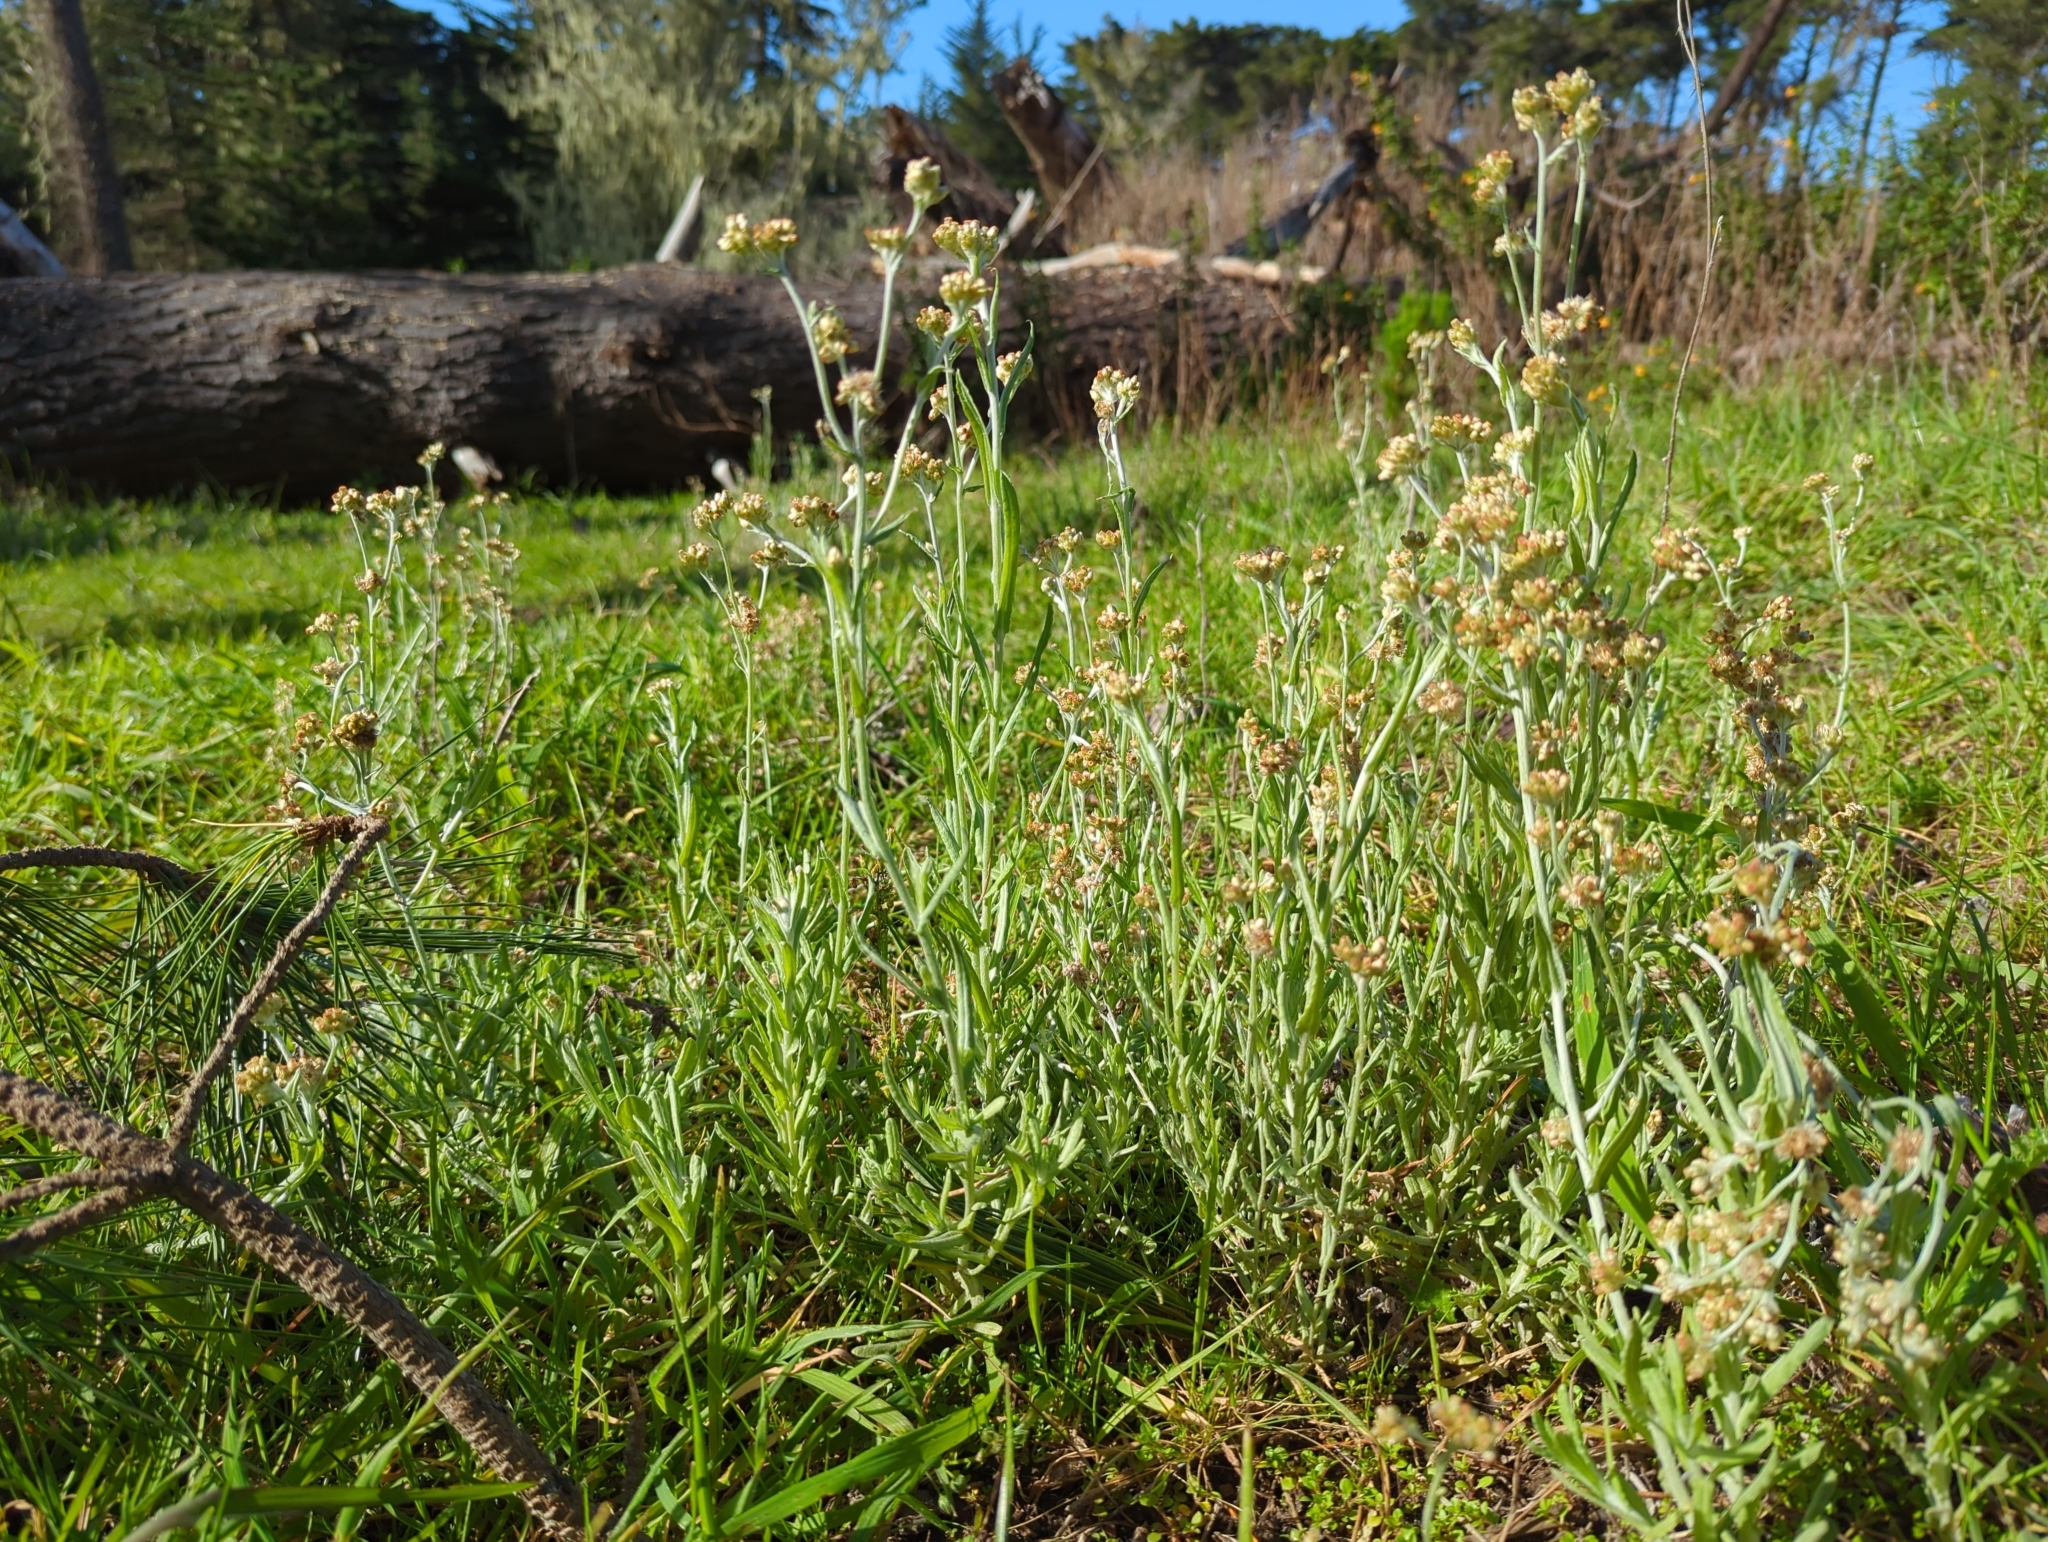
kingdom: Plantae
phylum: Tracheophyta
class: Magnoliopsida
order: Asterales
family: Asteraceae
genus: Helichrysum
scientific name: Helichrysum luteoalbum
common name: Daisy
